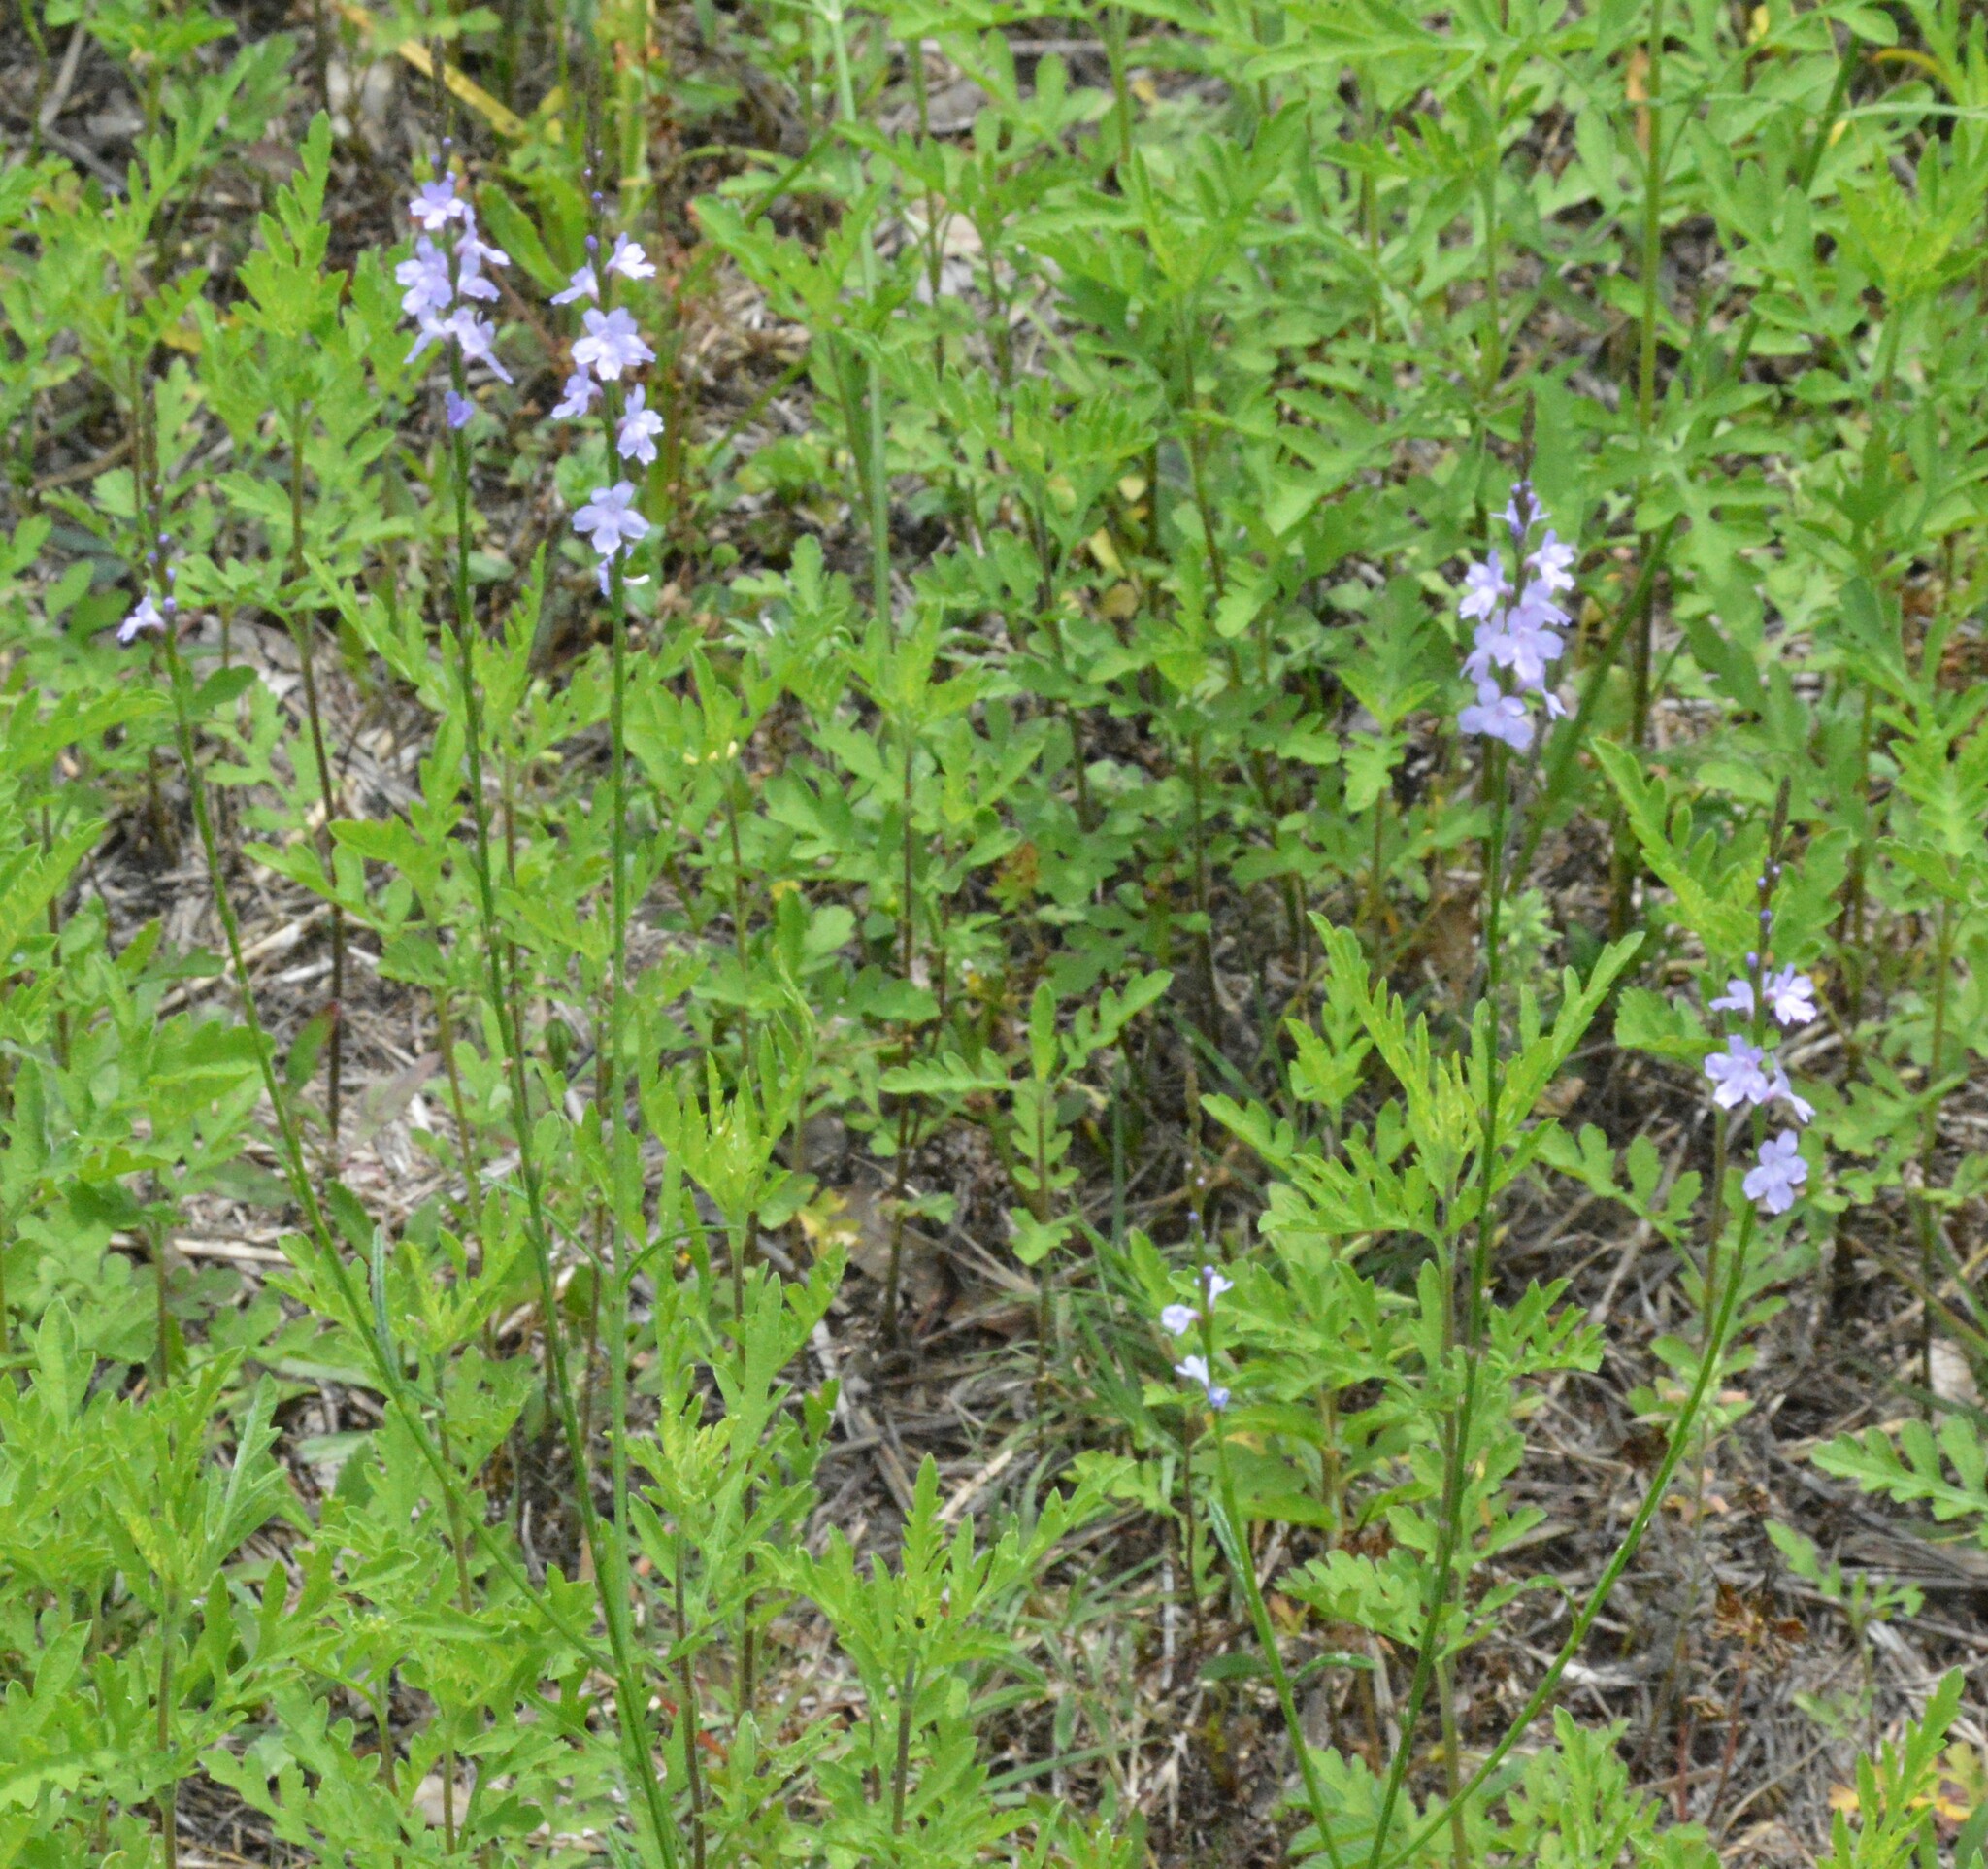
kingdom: Plantae
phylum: Tracheophyta
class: Magnoliopsida
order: Lamiales
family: Verbenaceae
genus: Verbena
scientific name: Verbena halei
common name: Texas vervain
